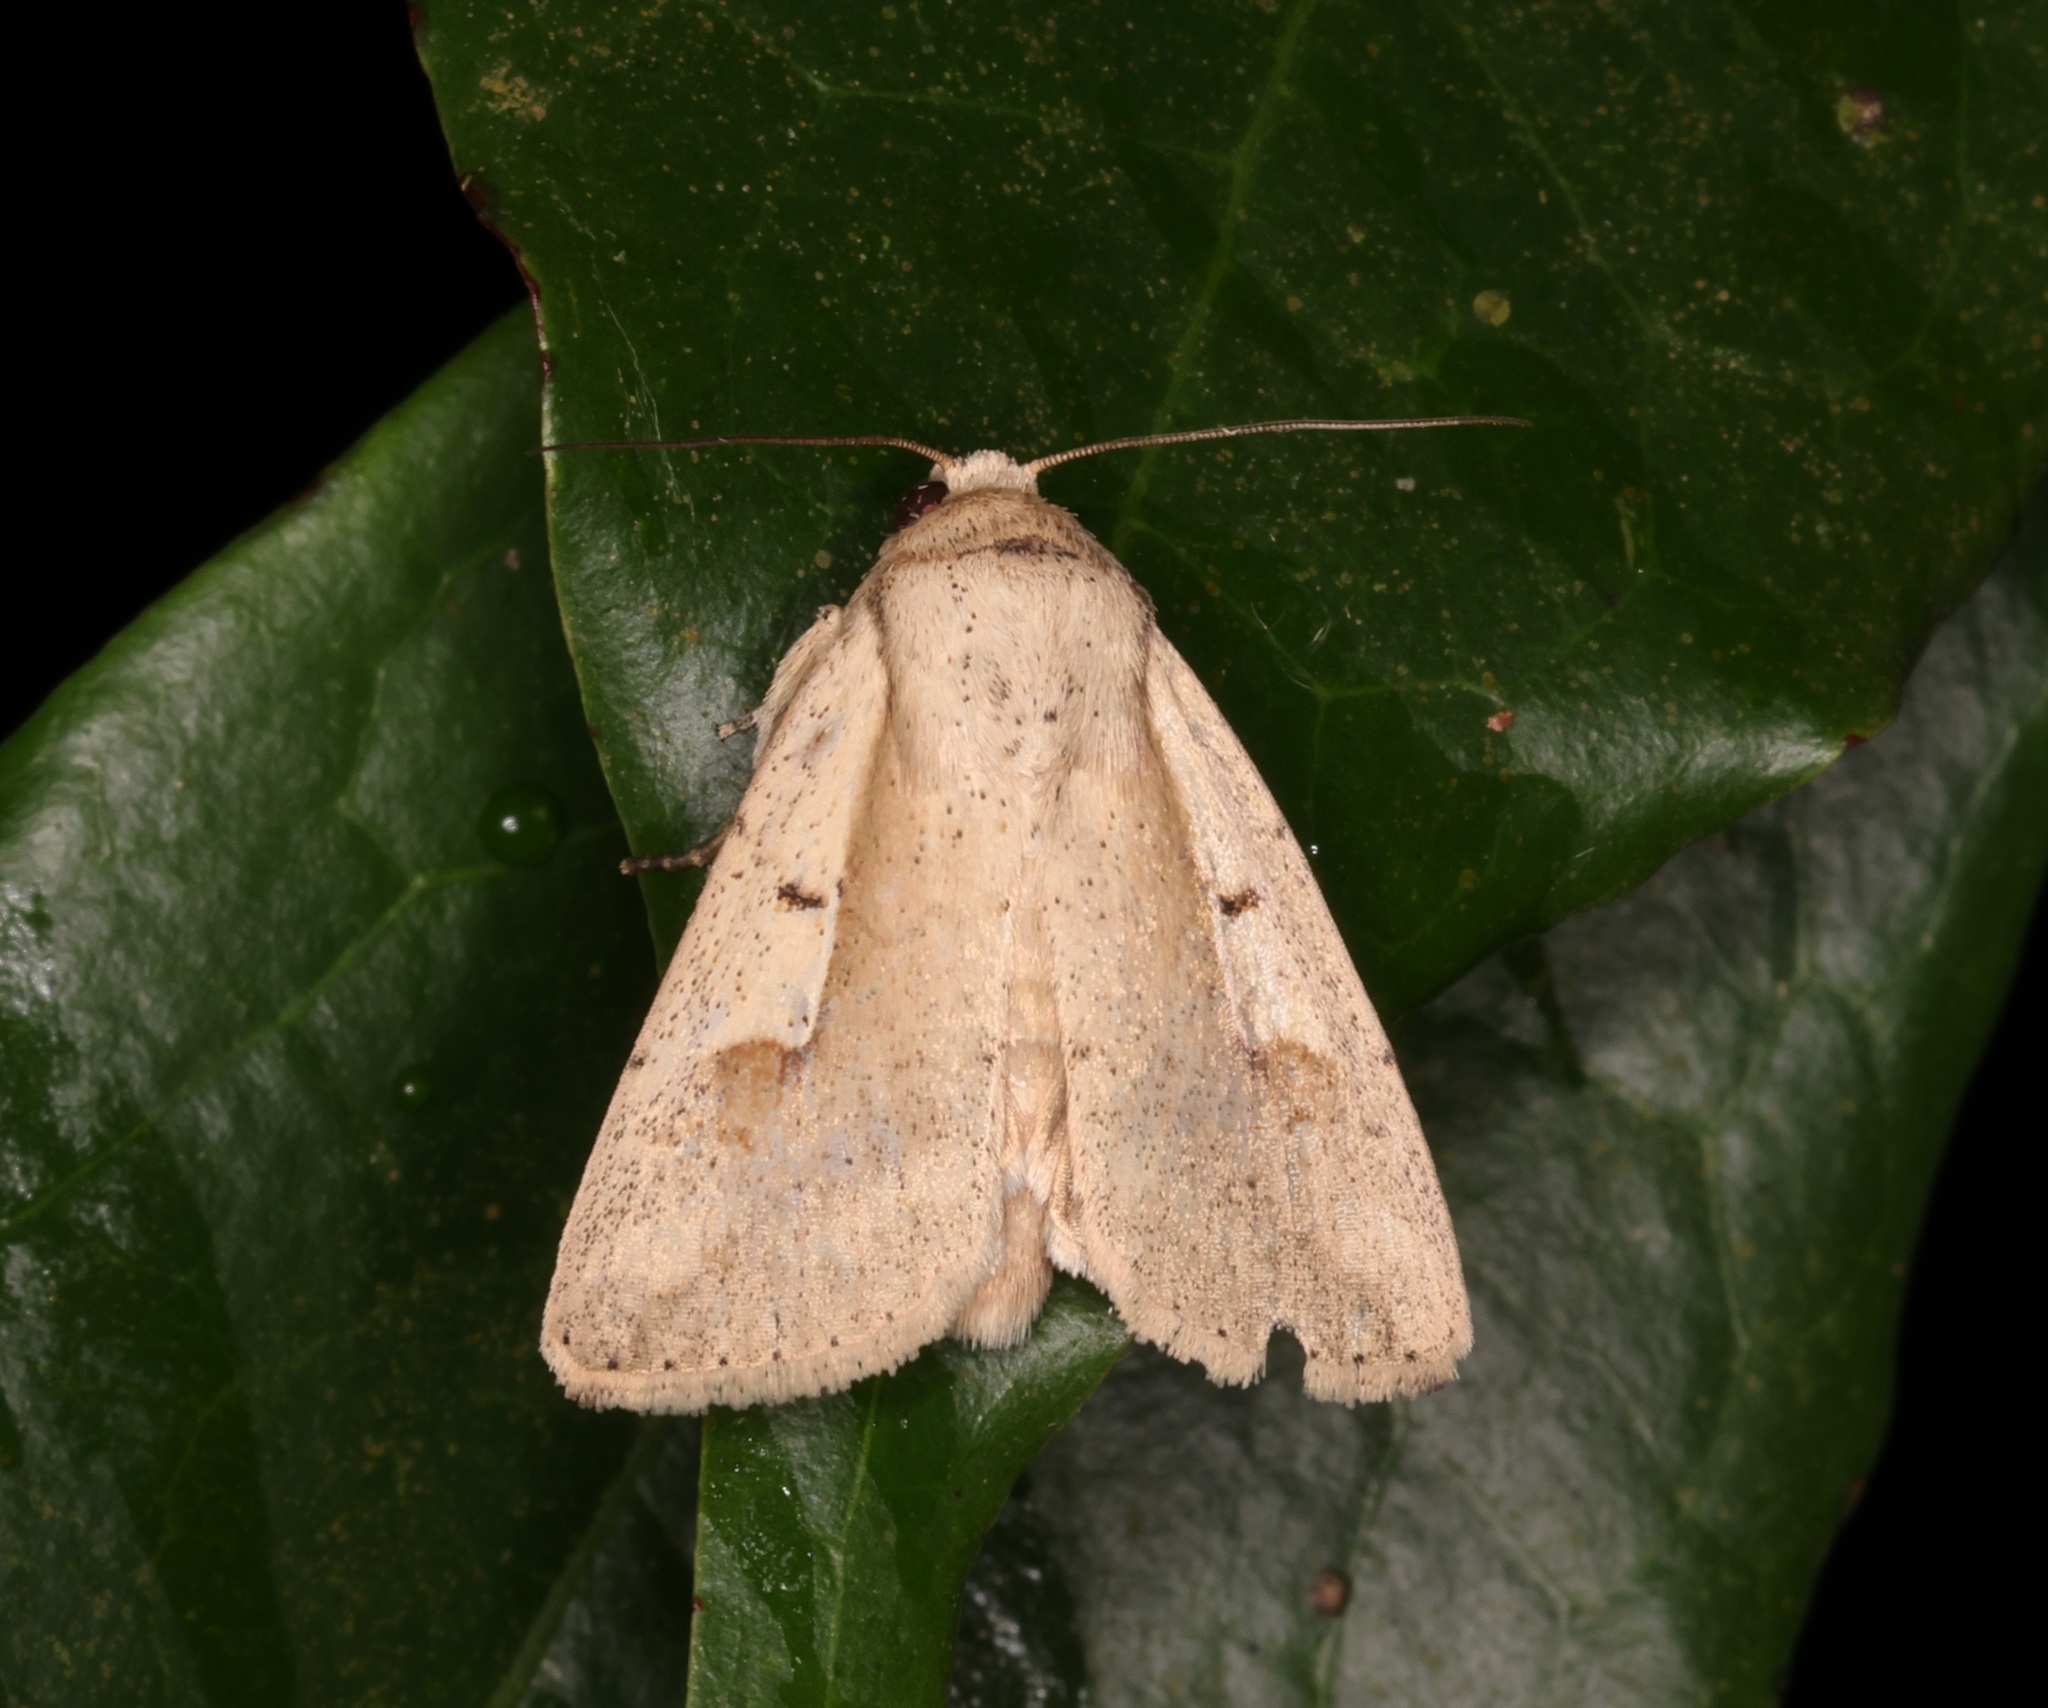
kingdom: Animalia
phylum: Arthropoda
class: Insecta
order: Lepidoptera
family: Noctuidae
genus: Leucania
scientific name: Leucania yu
